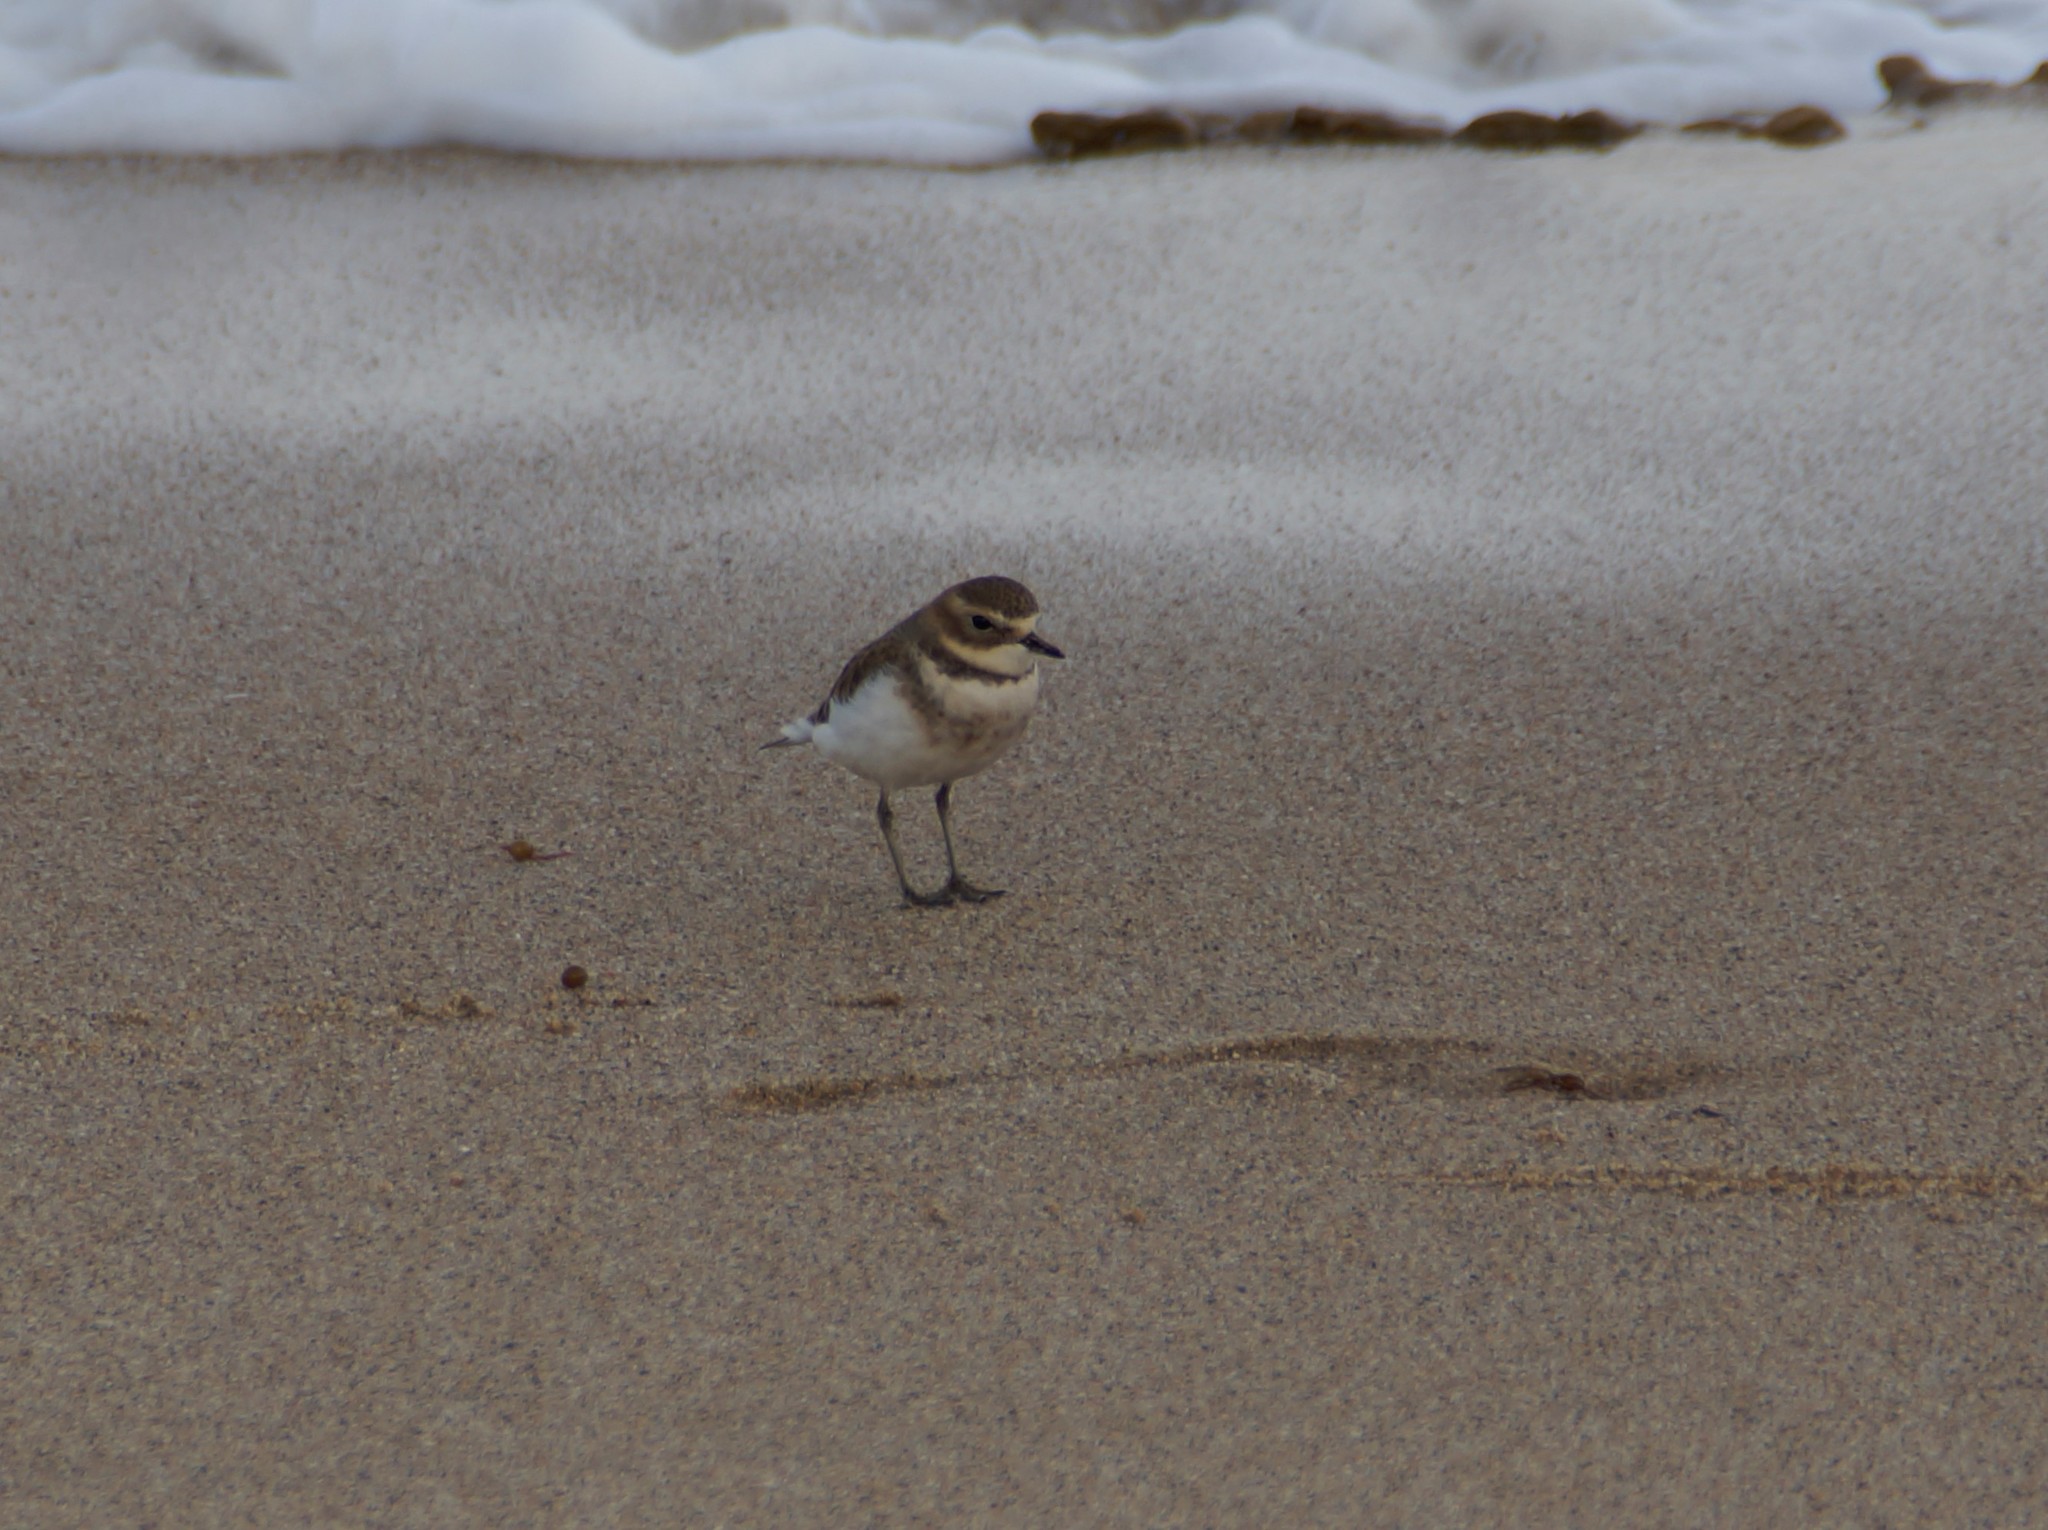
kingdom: Animalia
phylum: Chordata
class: Aves
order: Charadriiformes
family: Charadriidae
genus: Anarhynchus
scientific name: Anarhynchus
